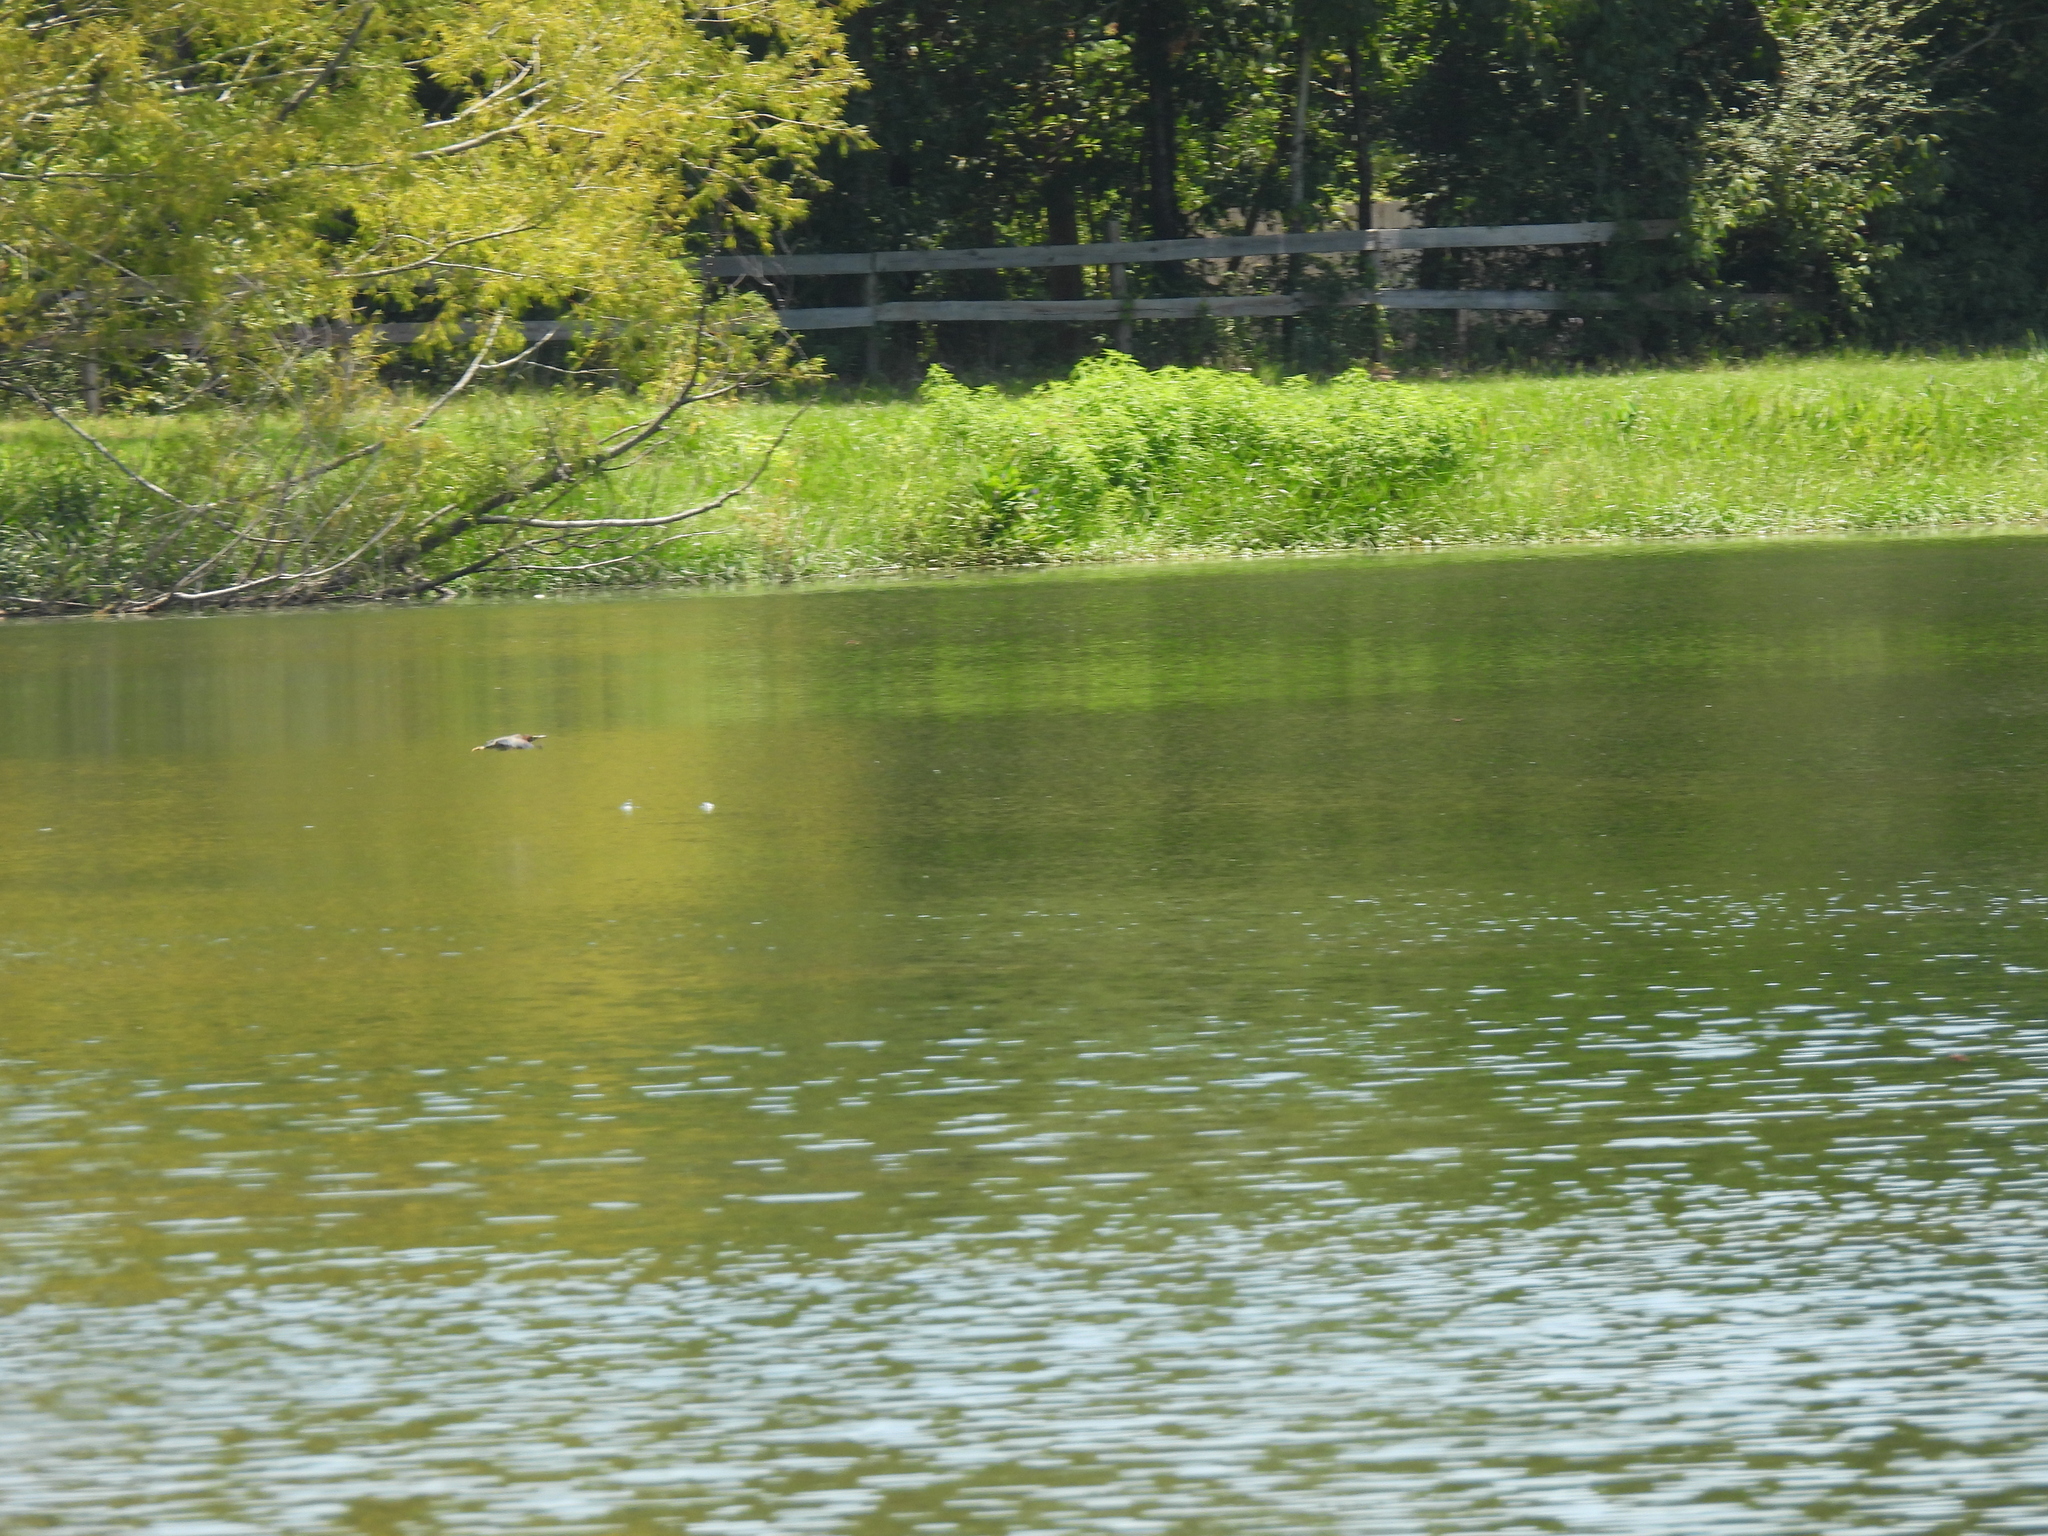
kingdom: Animalia
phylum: Chordata
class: Aves
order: Pelecaniformes
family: Ardeidae
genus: Butorides
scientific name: Butorides virescens
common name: Green heron
